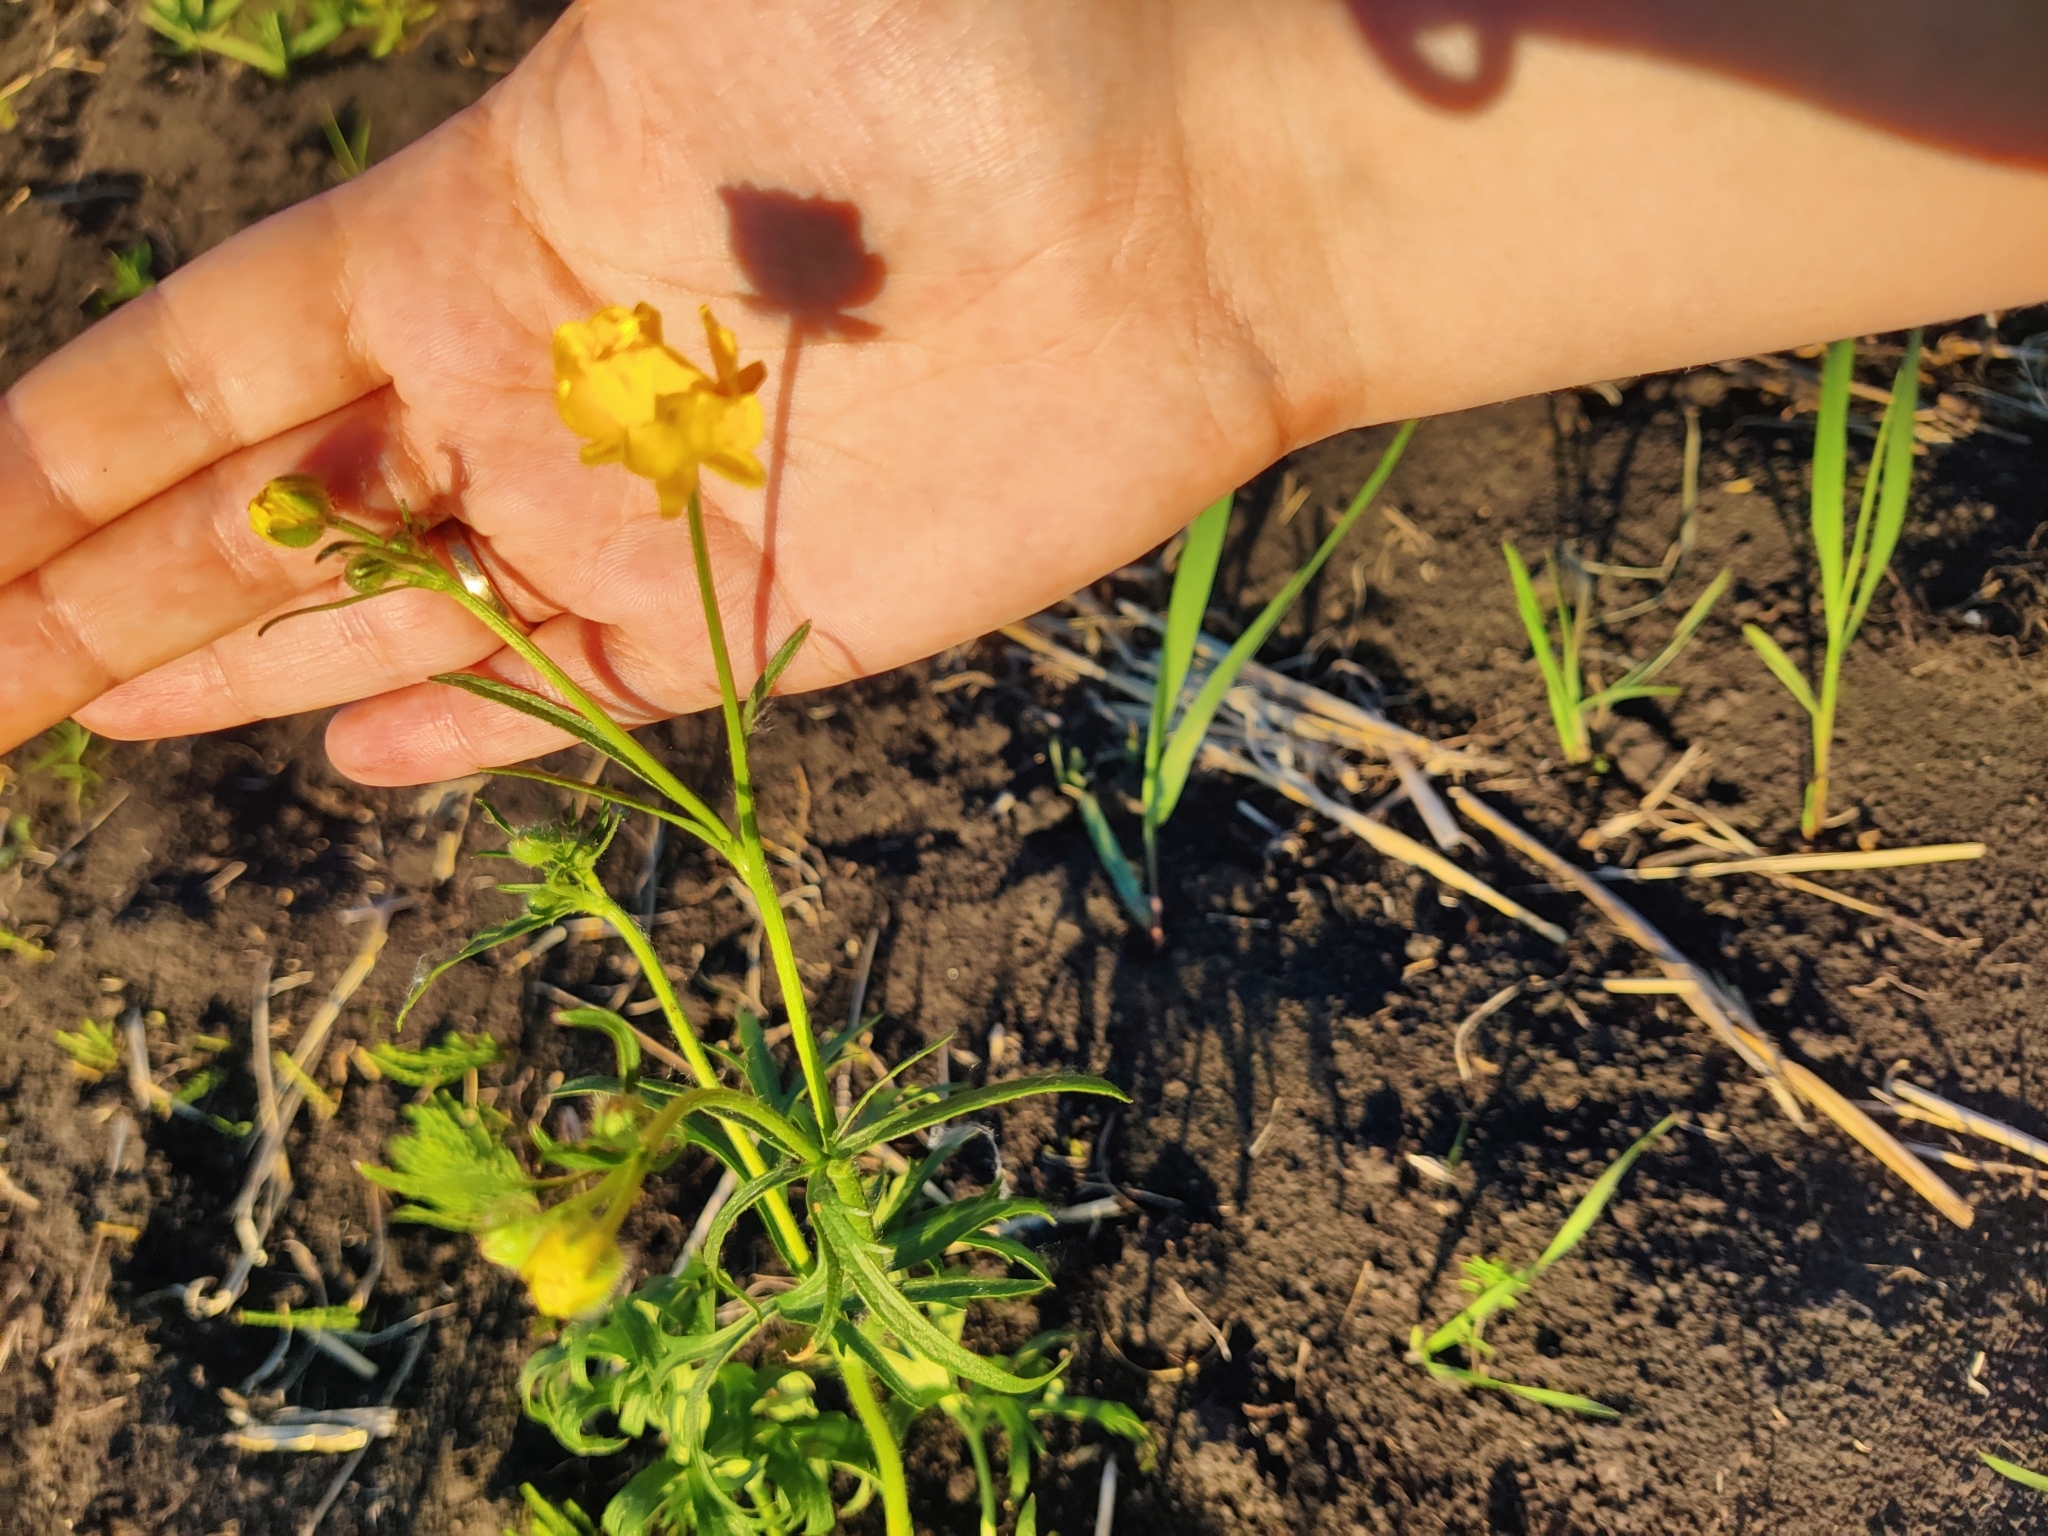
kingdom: Plantae
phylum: Tracheophyta
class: Magnoliopsida
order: Ranunculales
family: Ranunculaceae
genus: Ranunculus
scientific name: Ranunculus polyanthemos
